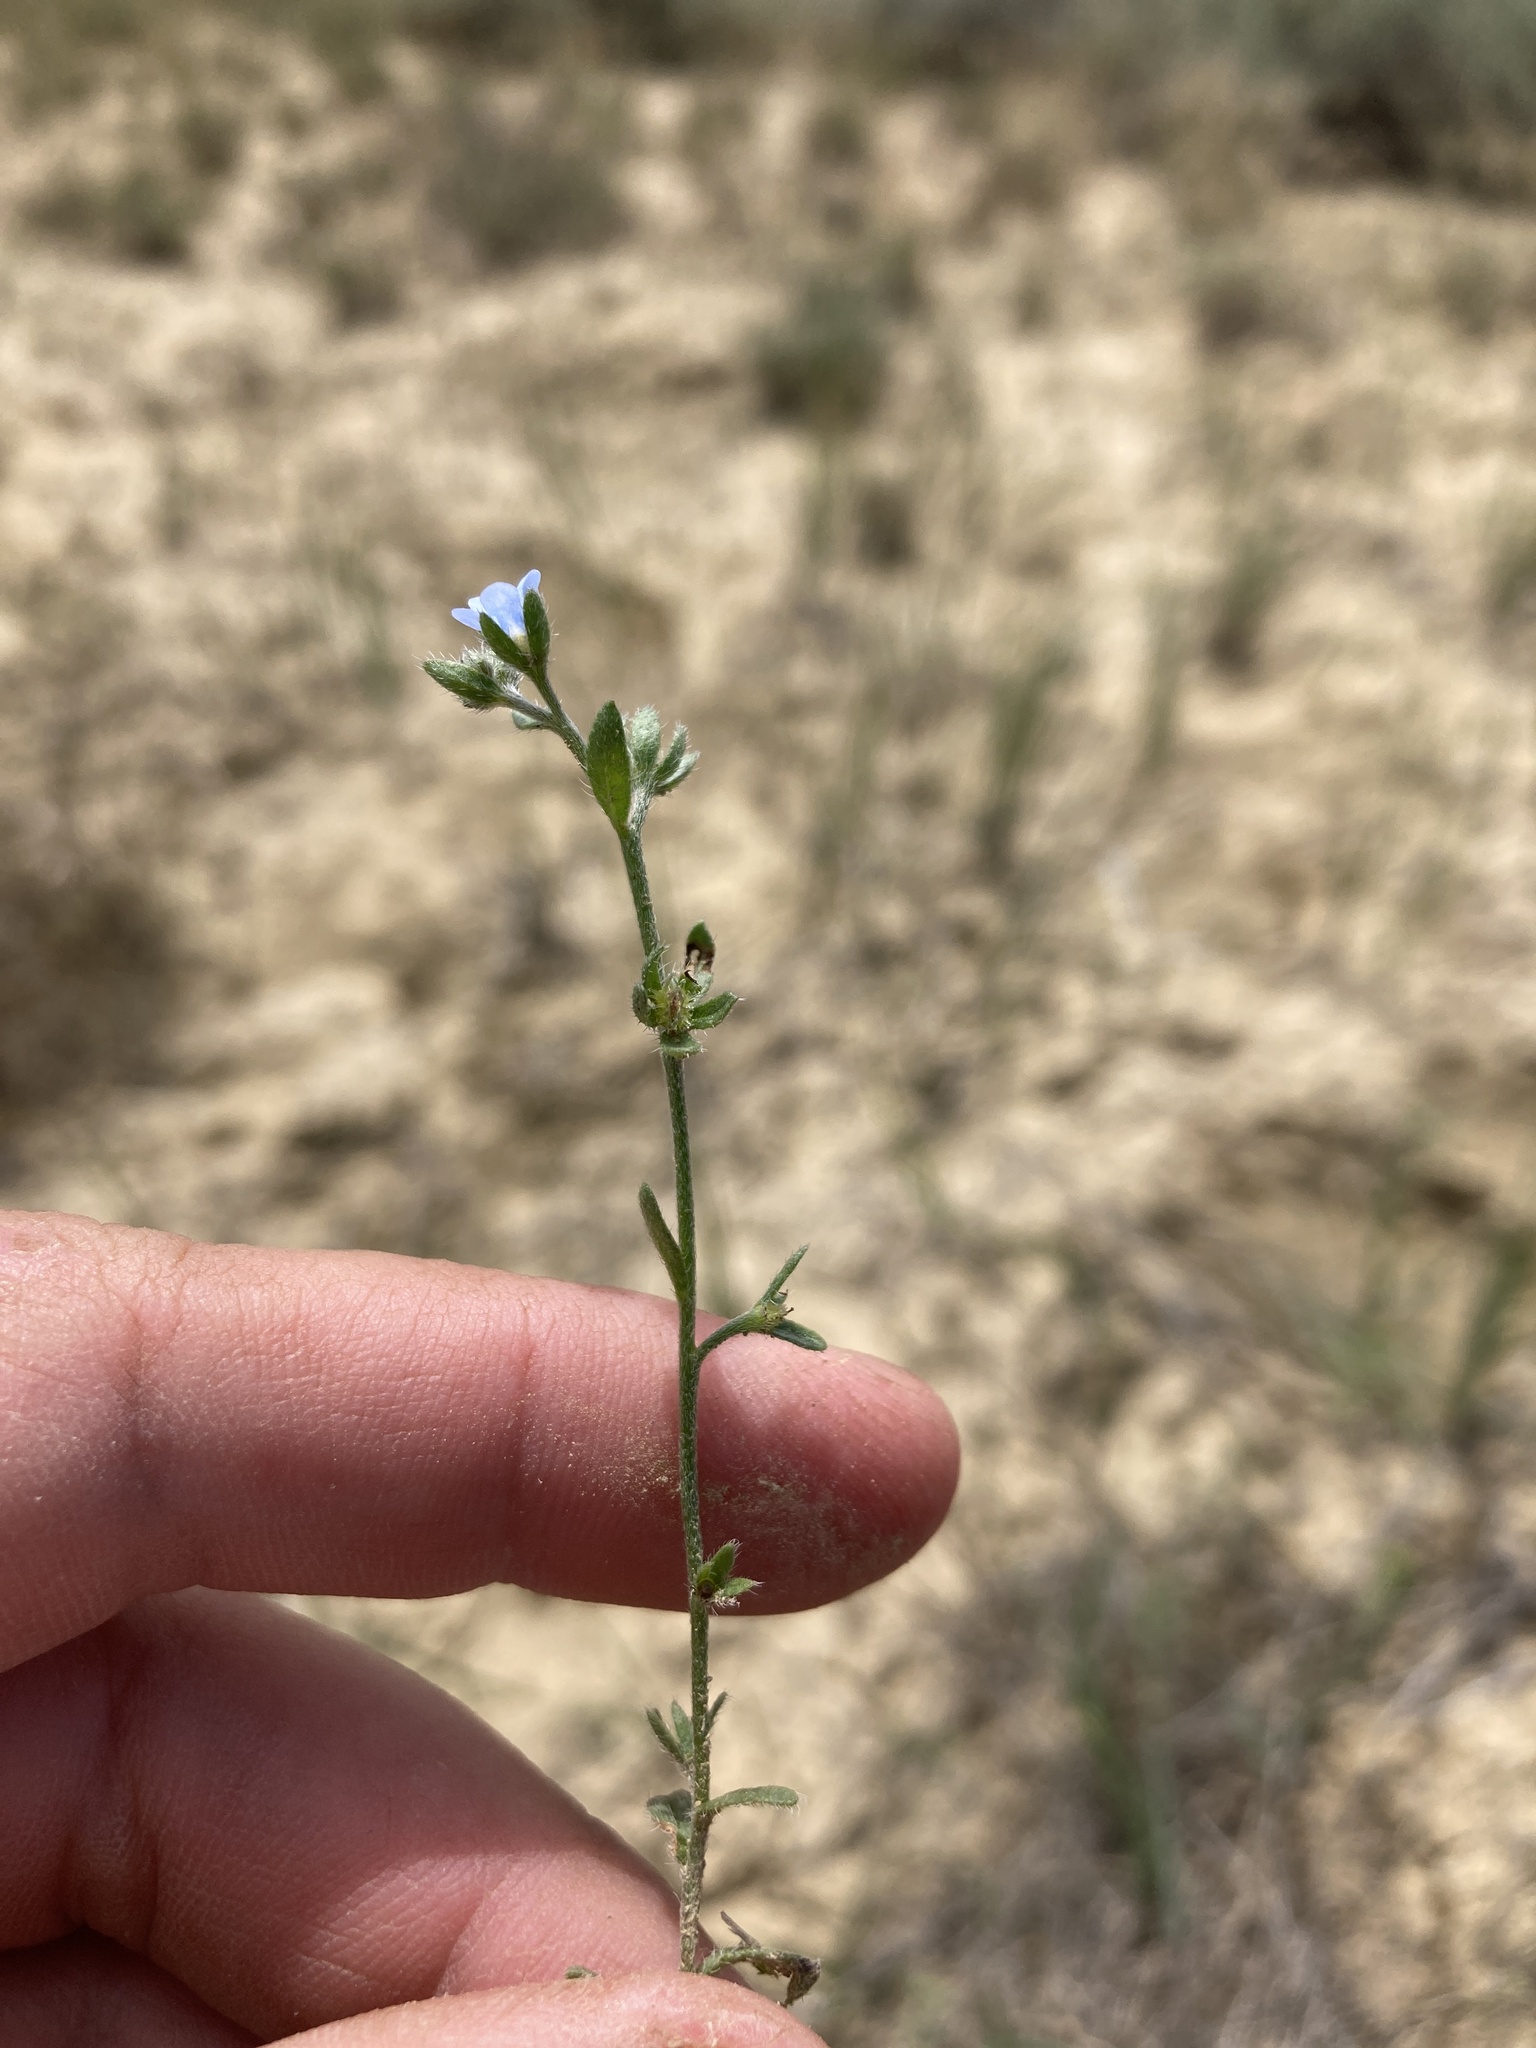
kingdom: Plantae
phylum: Tracheophyta
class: Magnoliopsida
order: Boraginales
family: Boraginaceae
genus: Lappula
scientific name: Lappula occidentalis
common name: Western stickseed
